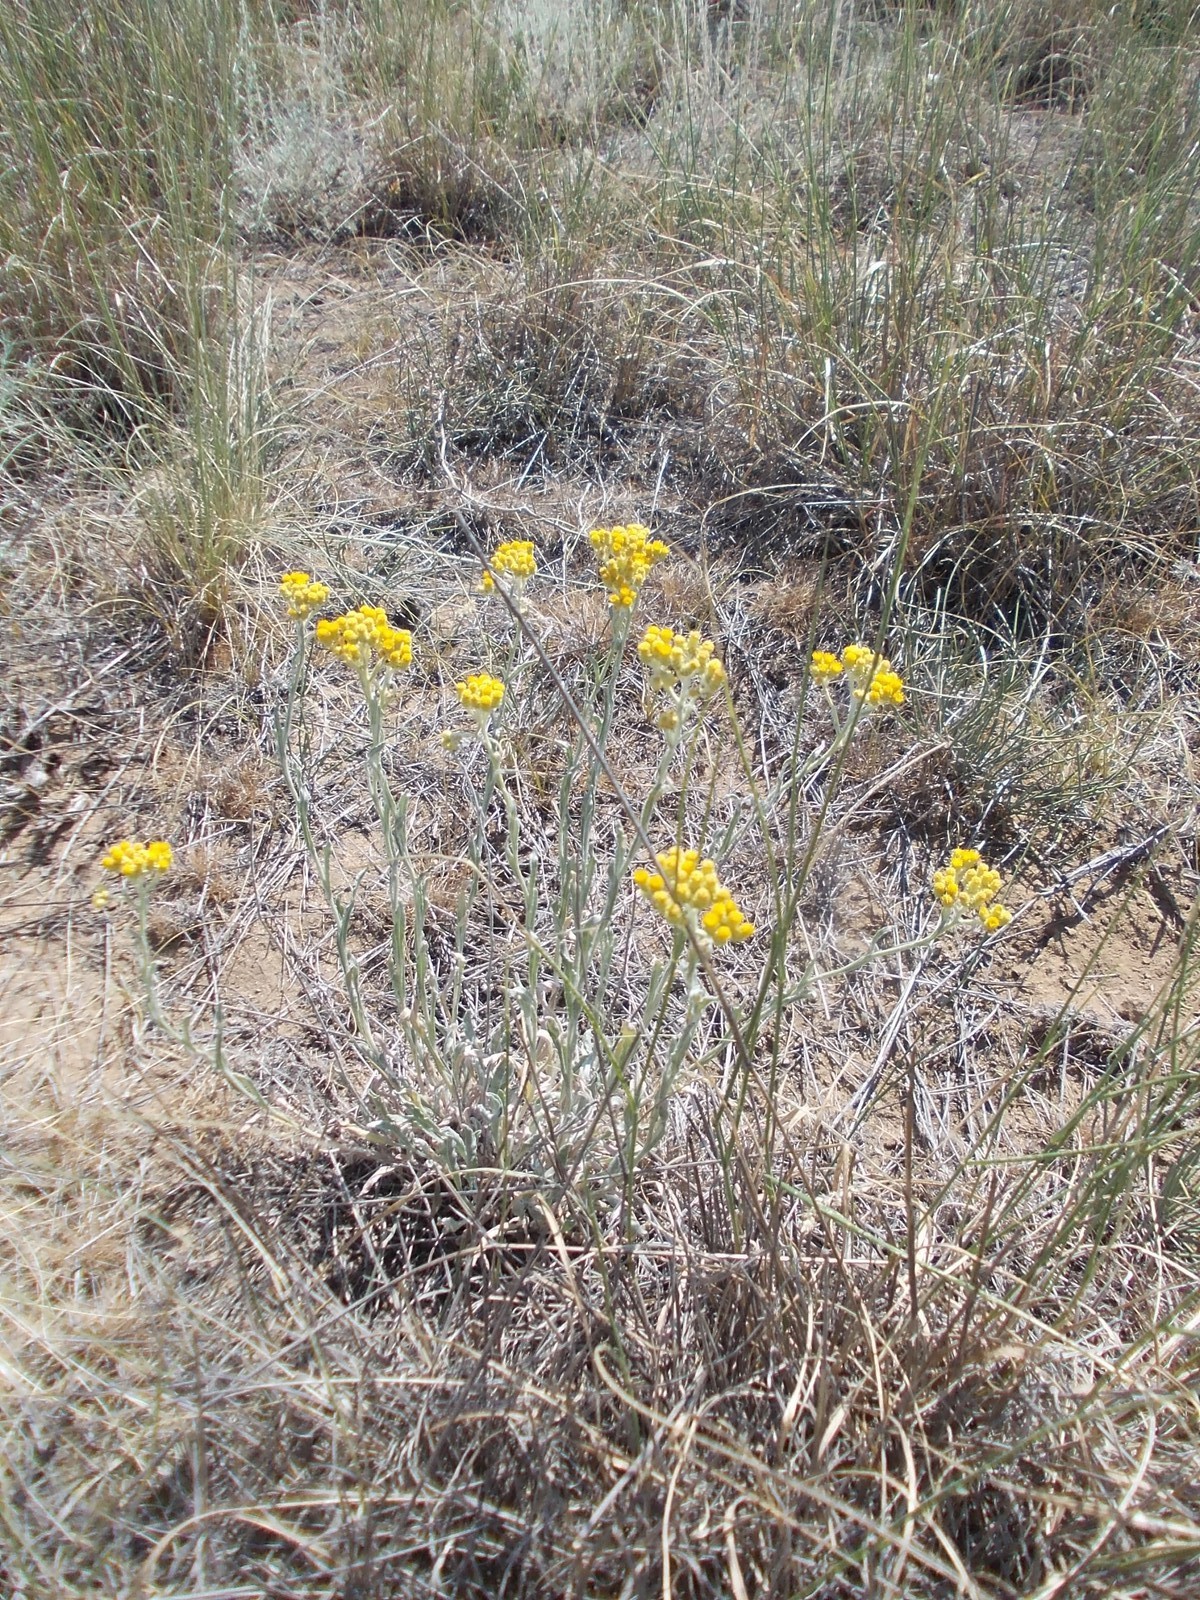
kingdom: Plantae
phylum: Tracheophyta
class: Magnoliopsida
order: Asterales
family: Asteraceae
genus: Helichrysum
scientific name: Helichrysum arenarium
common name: Strawflower
